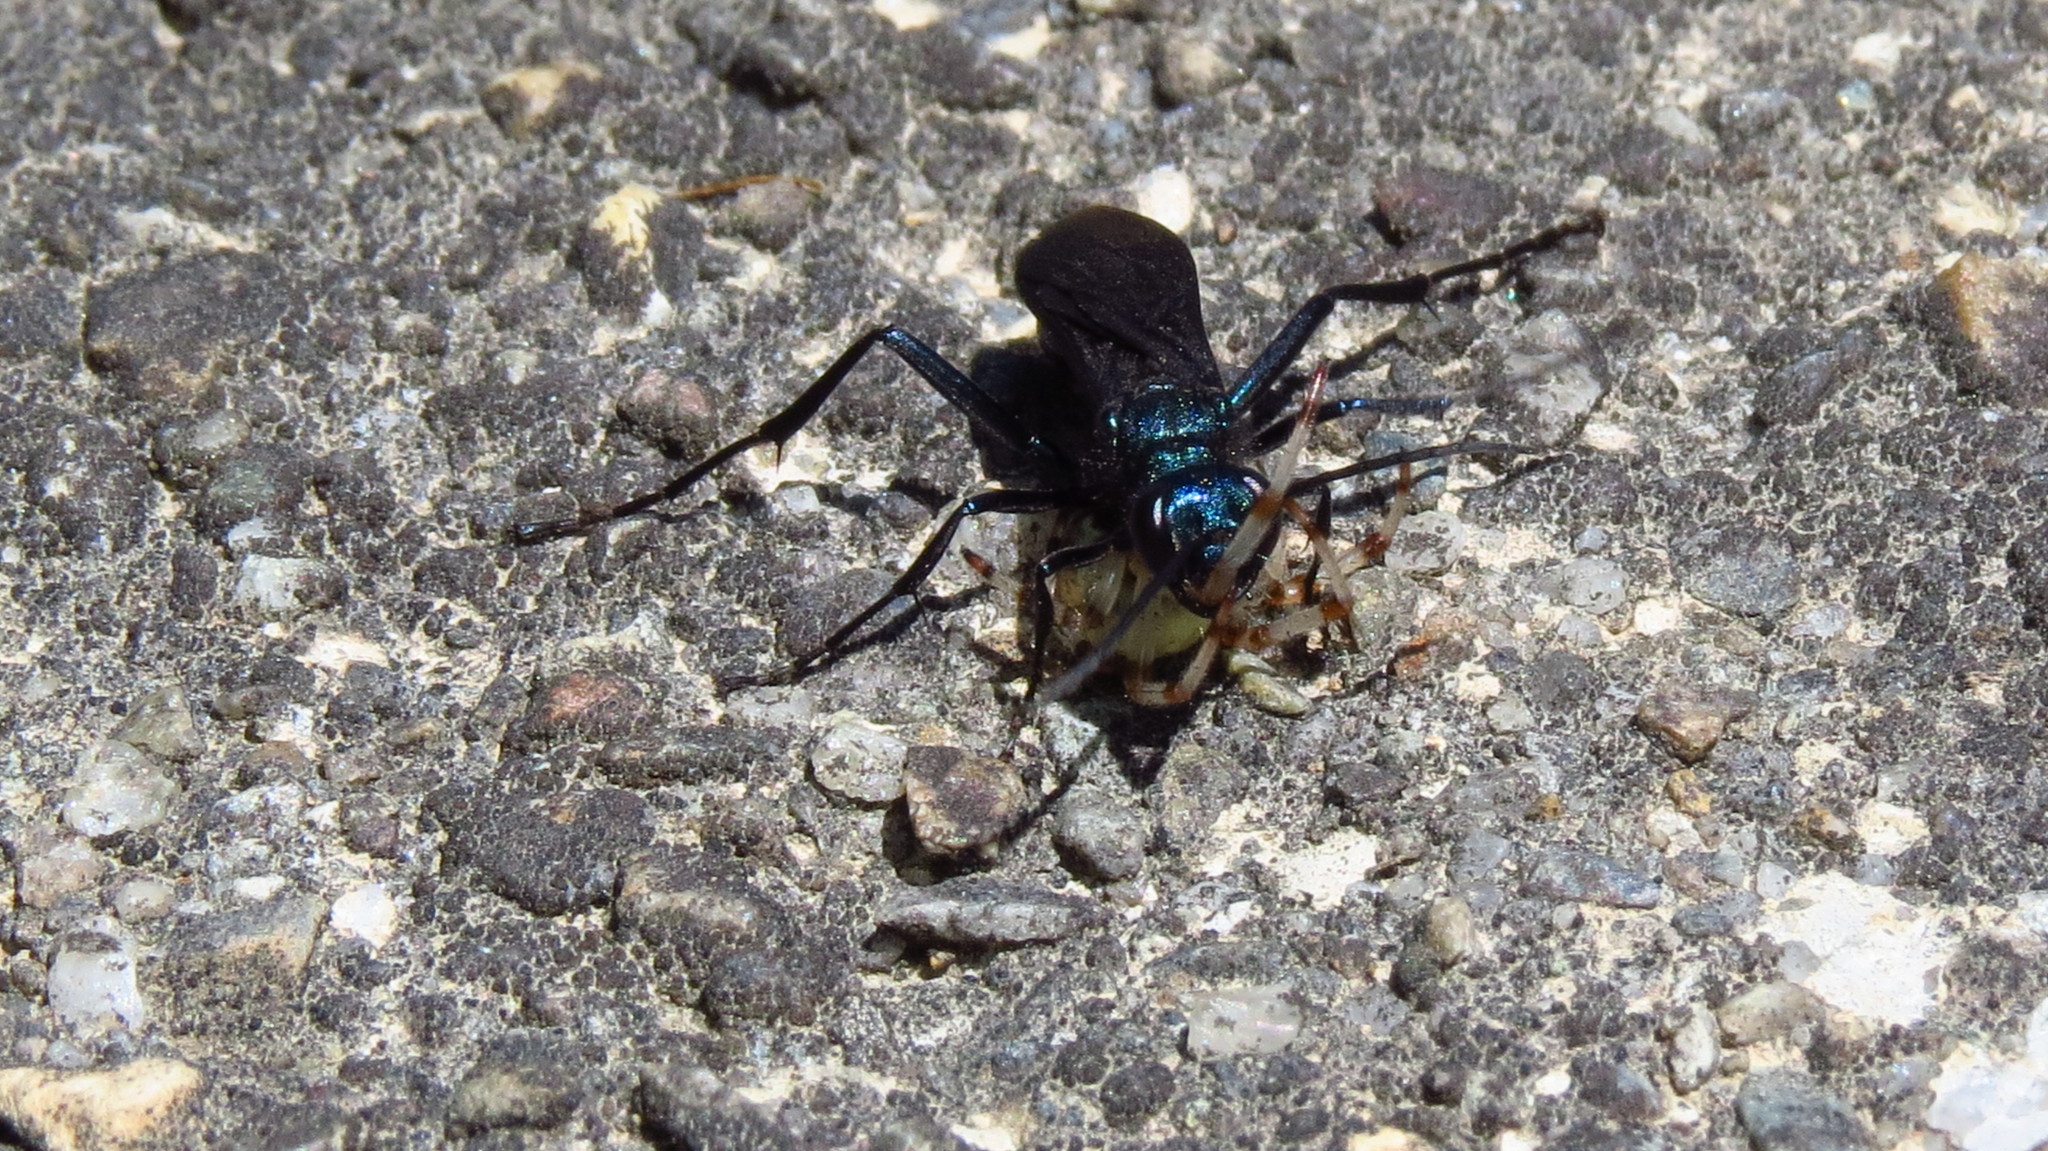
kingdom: Animalia
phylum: Arthropoda
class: Insecta
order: Hymenoptera
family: Sphecidae
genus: Chalybion
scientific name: Chalybion californicum
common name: Mud dauber
